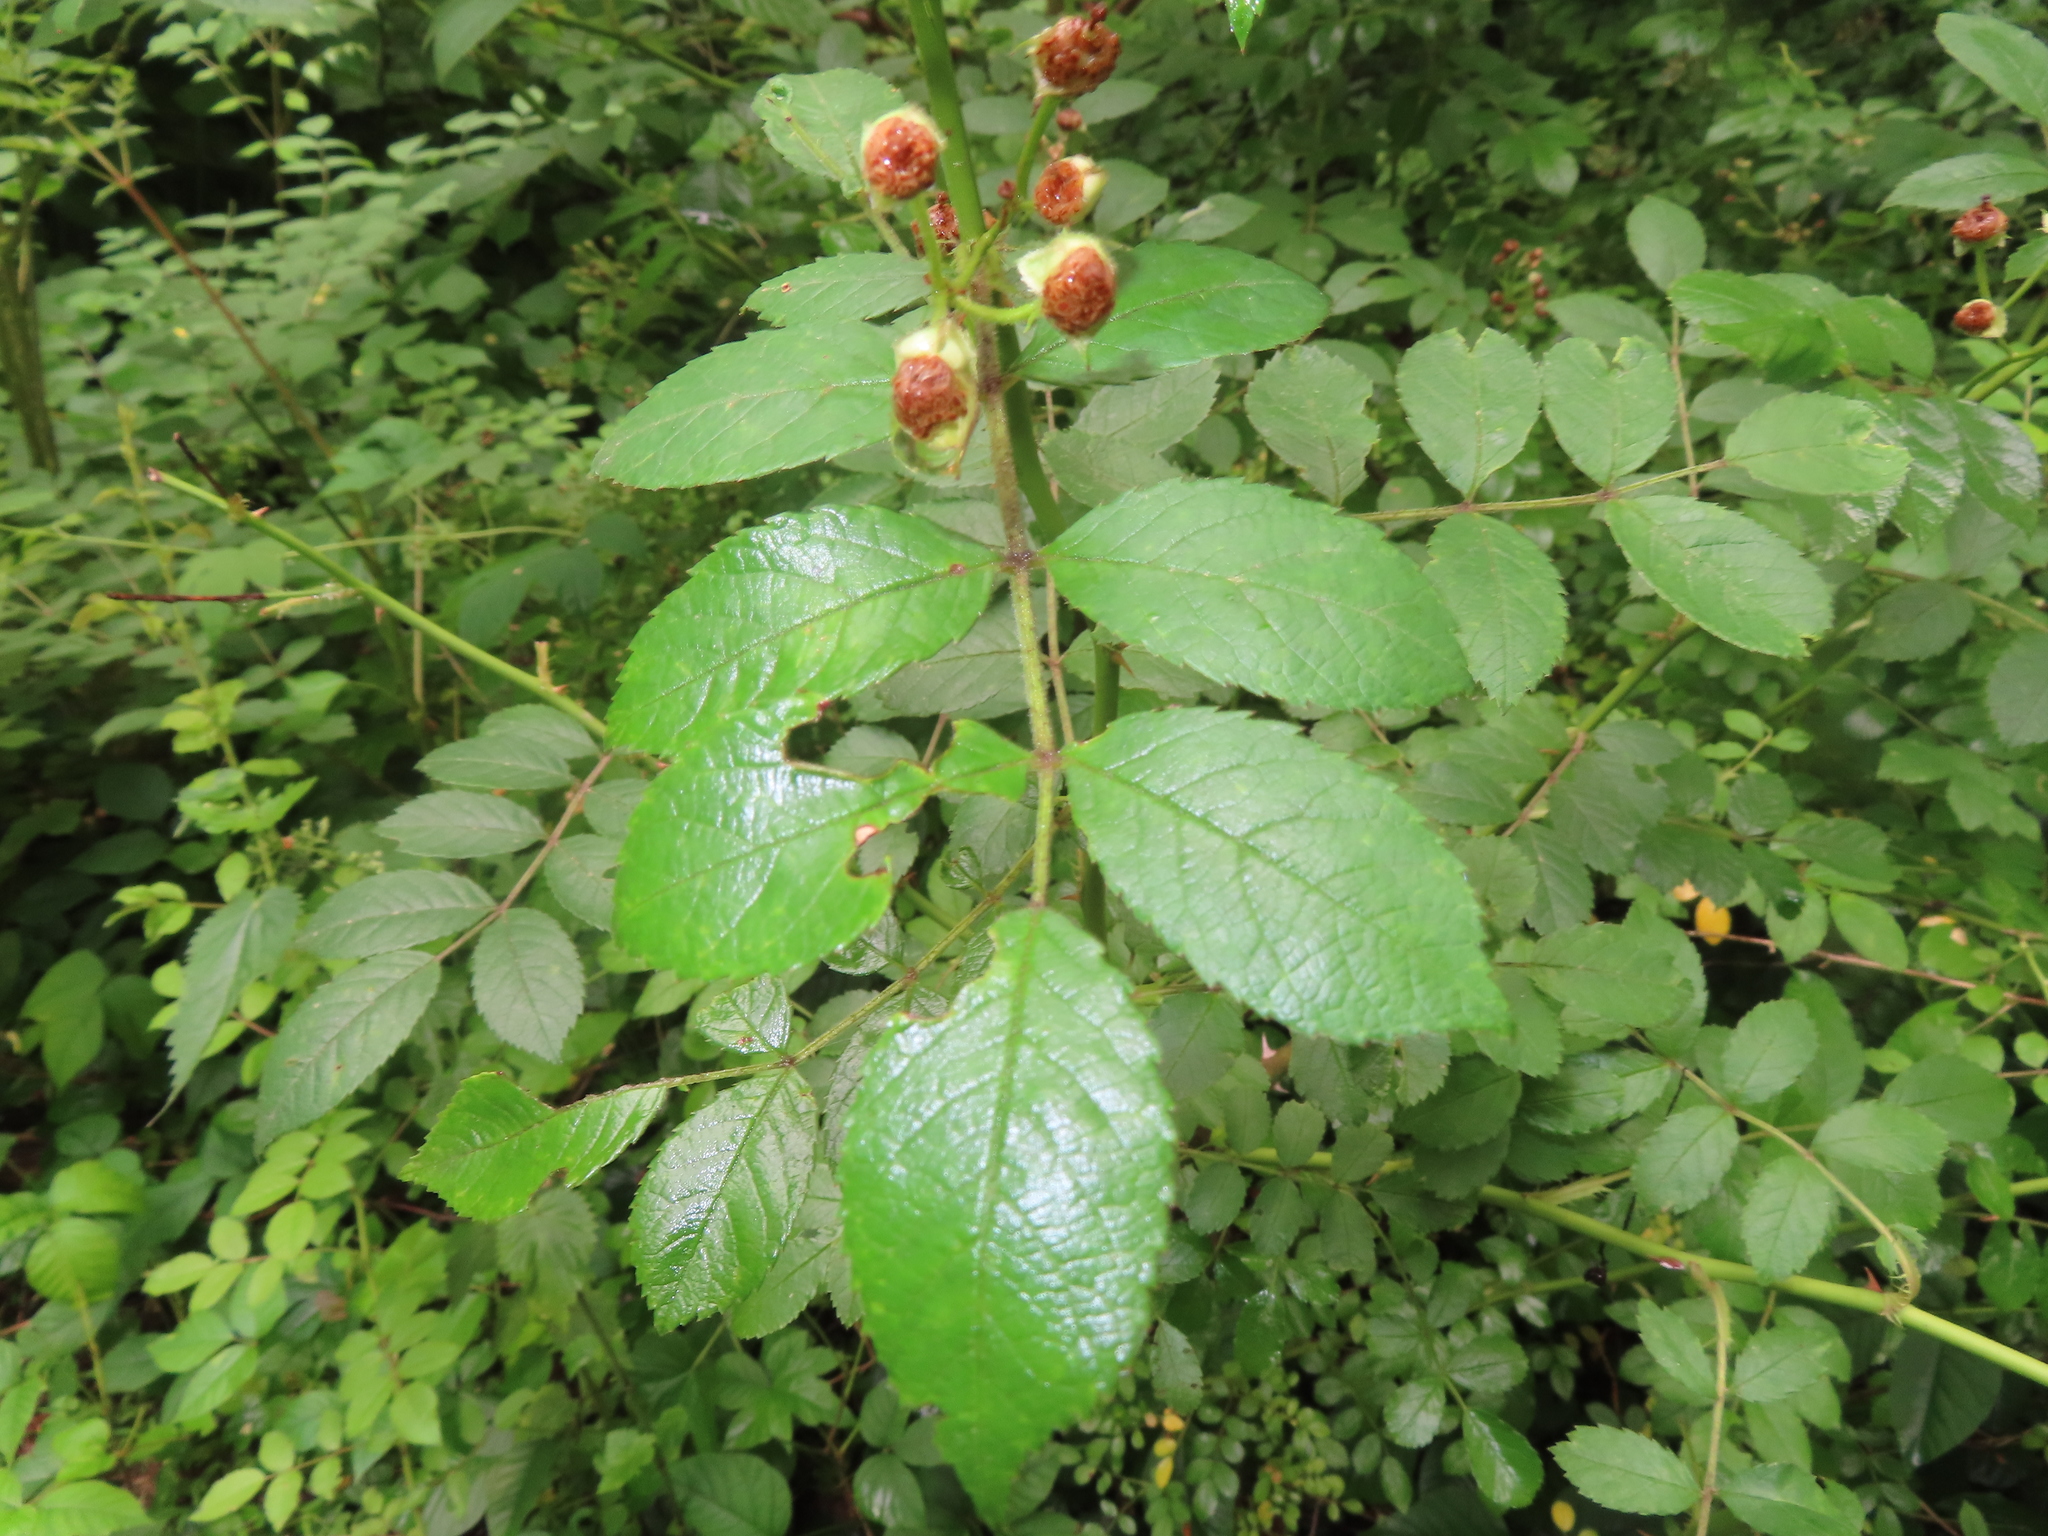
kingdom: Plantae
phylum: Tracheophyta
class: Magnoliopsida
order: Rosales
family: Rosaceae
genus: Rosa
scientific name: Rosa multiflora
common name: Multiflora rose
